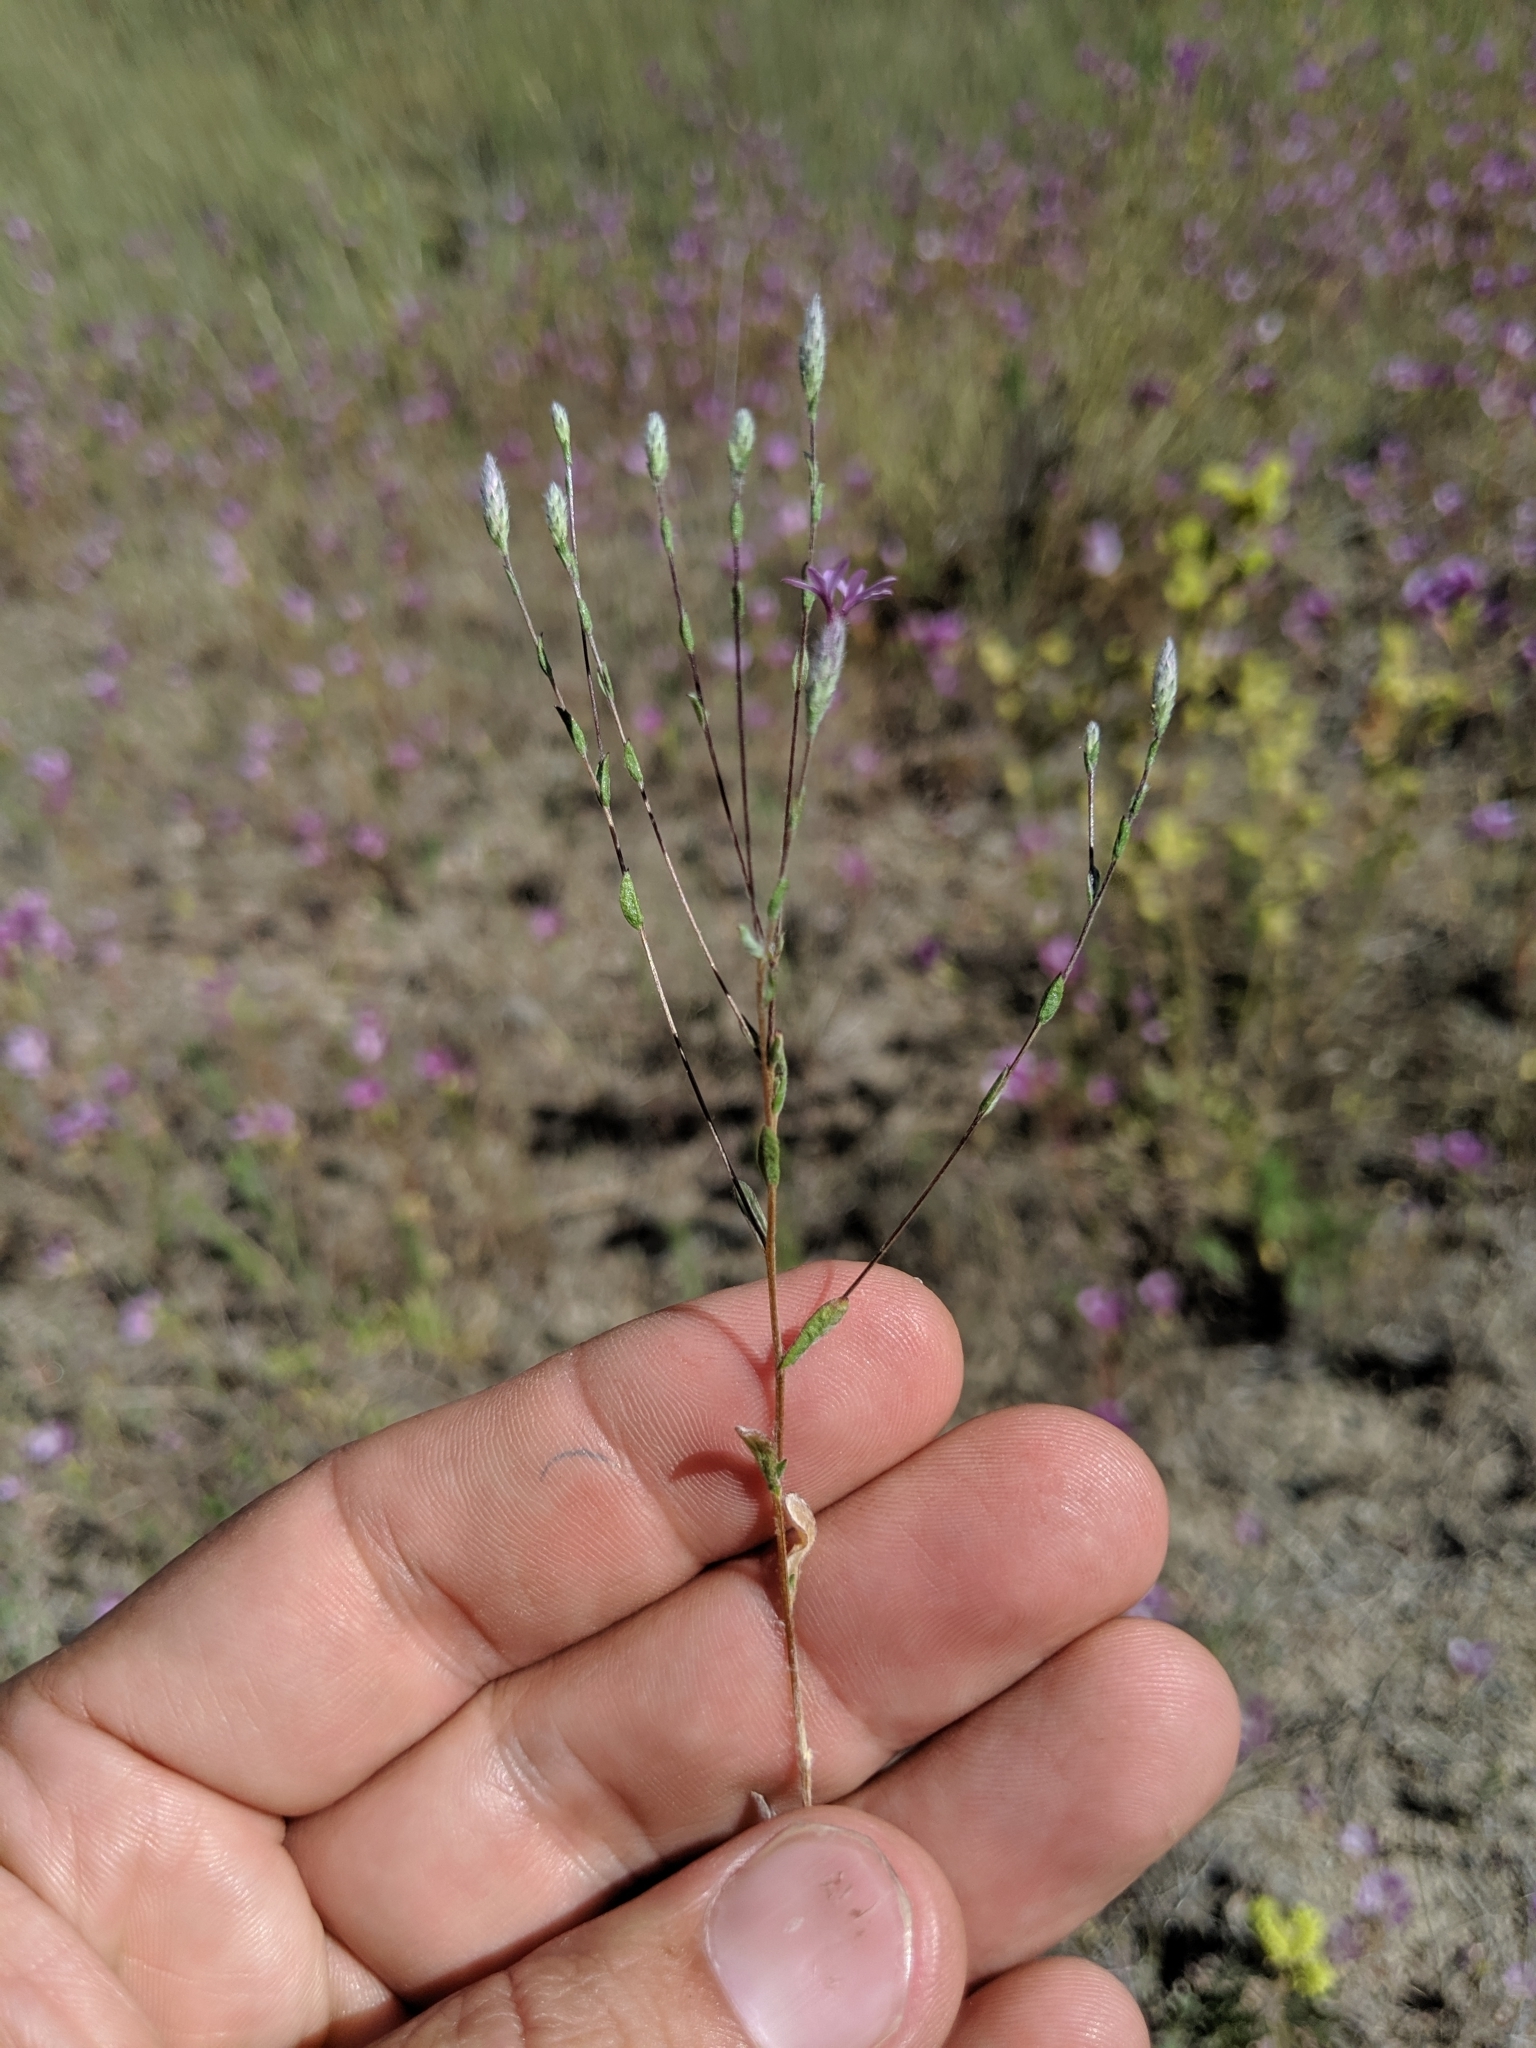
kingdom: Plantae
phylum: Tracheophyta
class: Magnoliopsida
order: Asterales
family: Asteraceae
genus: Lessingia
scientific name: Lessingia leptoclada
